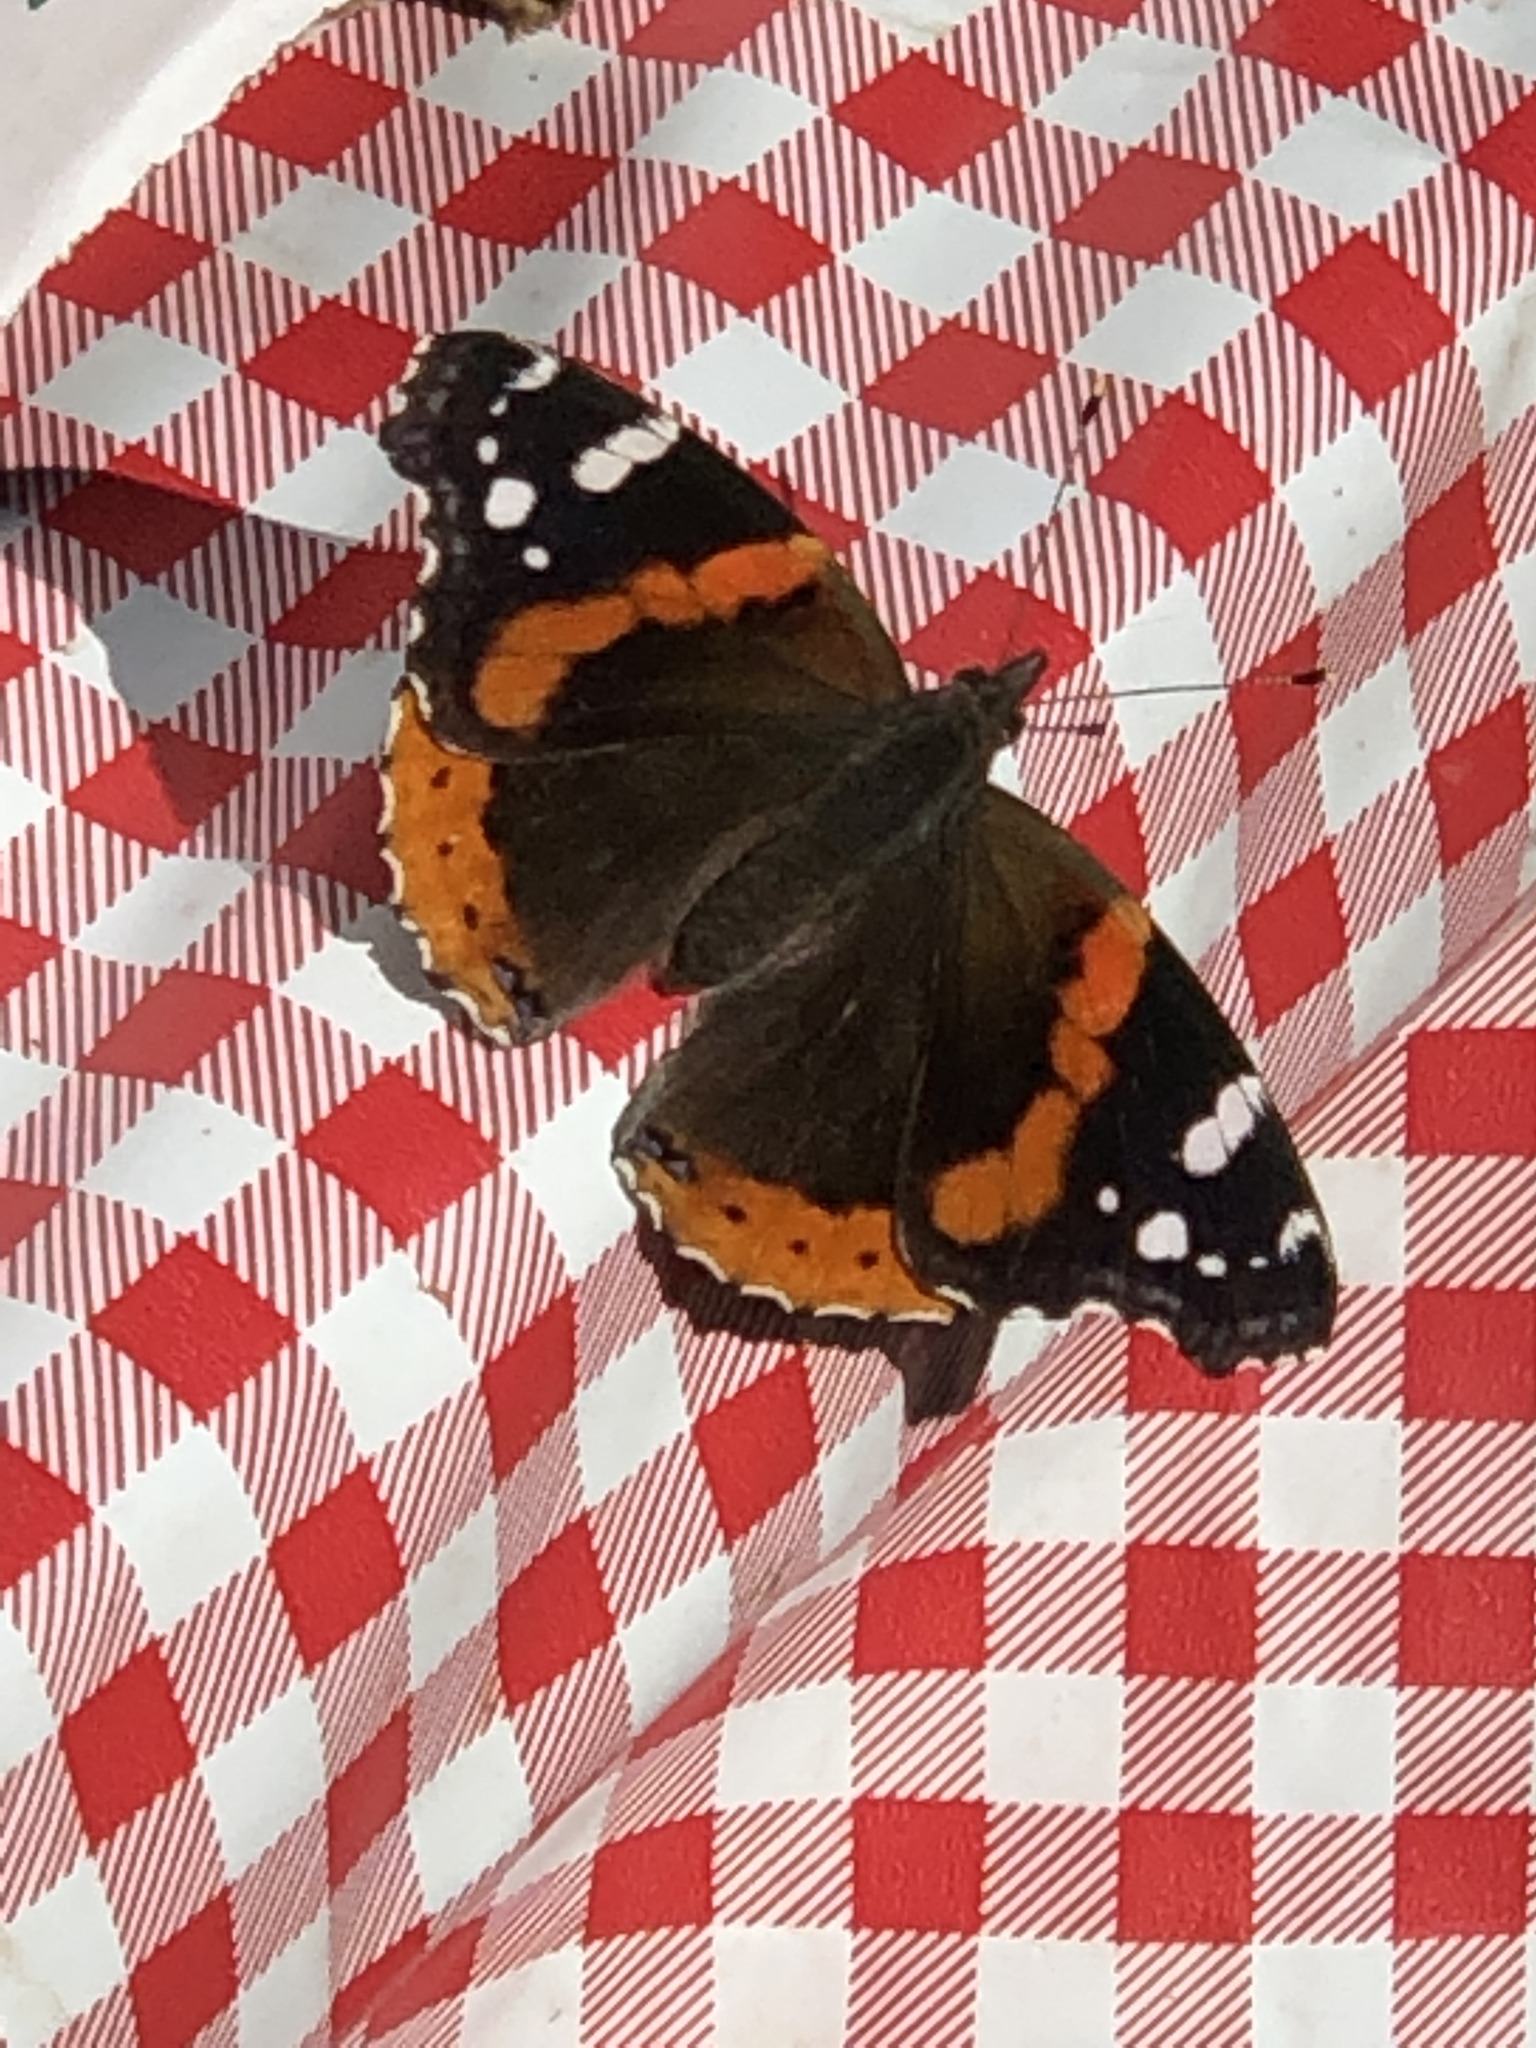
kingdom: Animalia
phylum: Arthropoda
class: Insecta
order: Lepidoptera
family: Nymphalidae
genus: Vanessa
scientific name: Vanessa atalanta
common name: Red admiral
